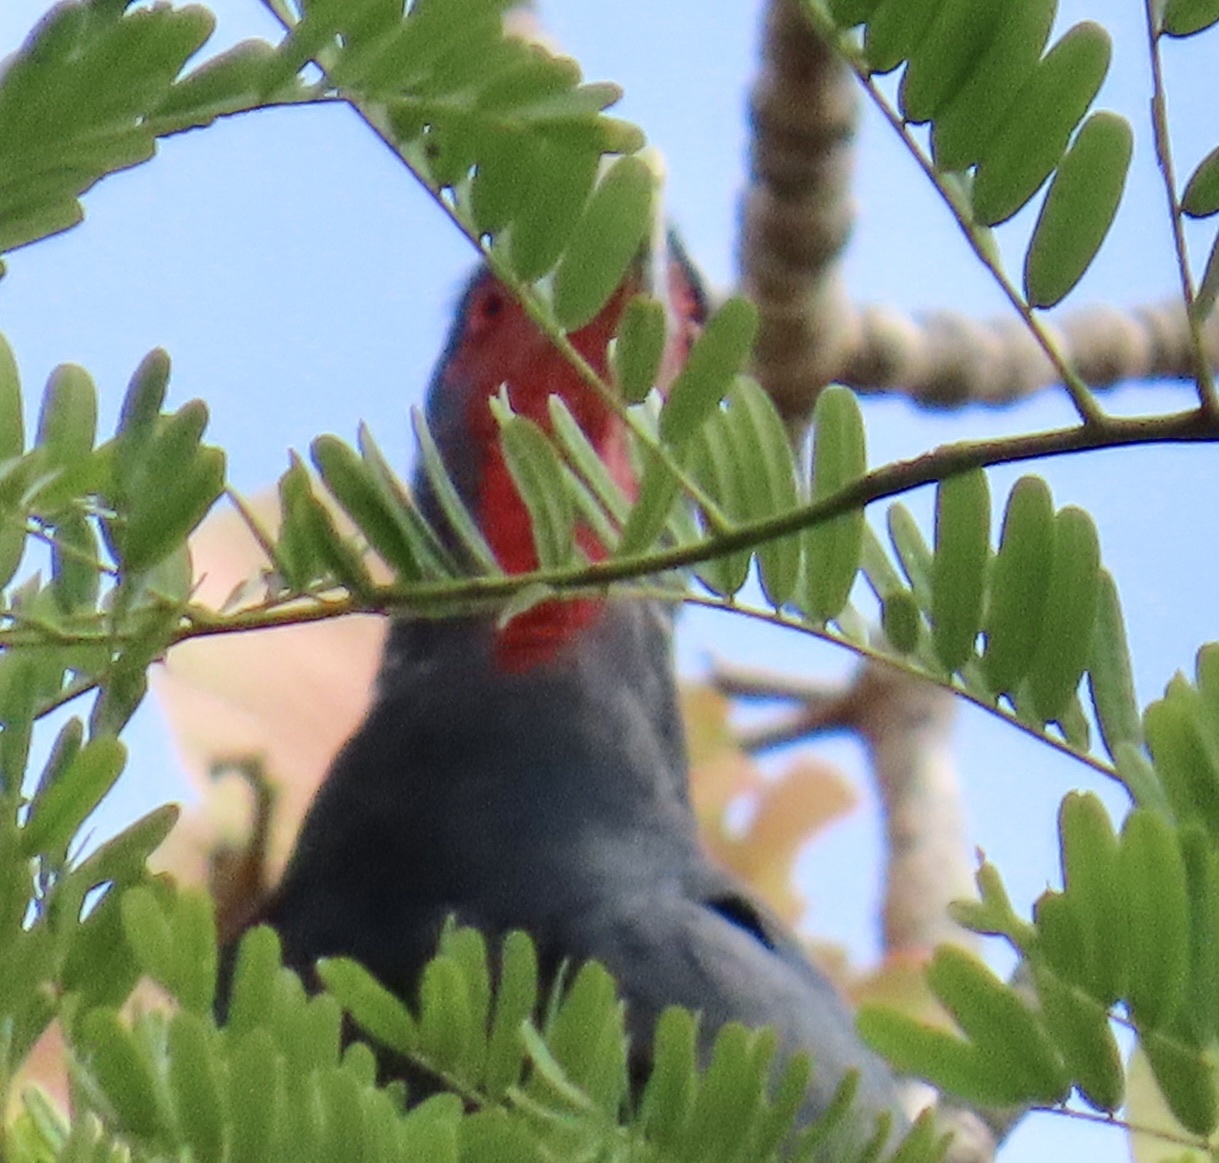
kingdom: Animalia
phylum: Chordata
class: Aves
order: Falconiformes
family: Falconidae
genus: Ibycter
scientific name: Ibycter americanus
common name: Red-throated caracara
